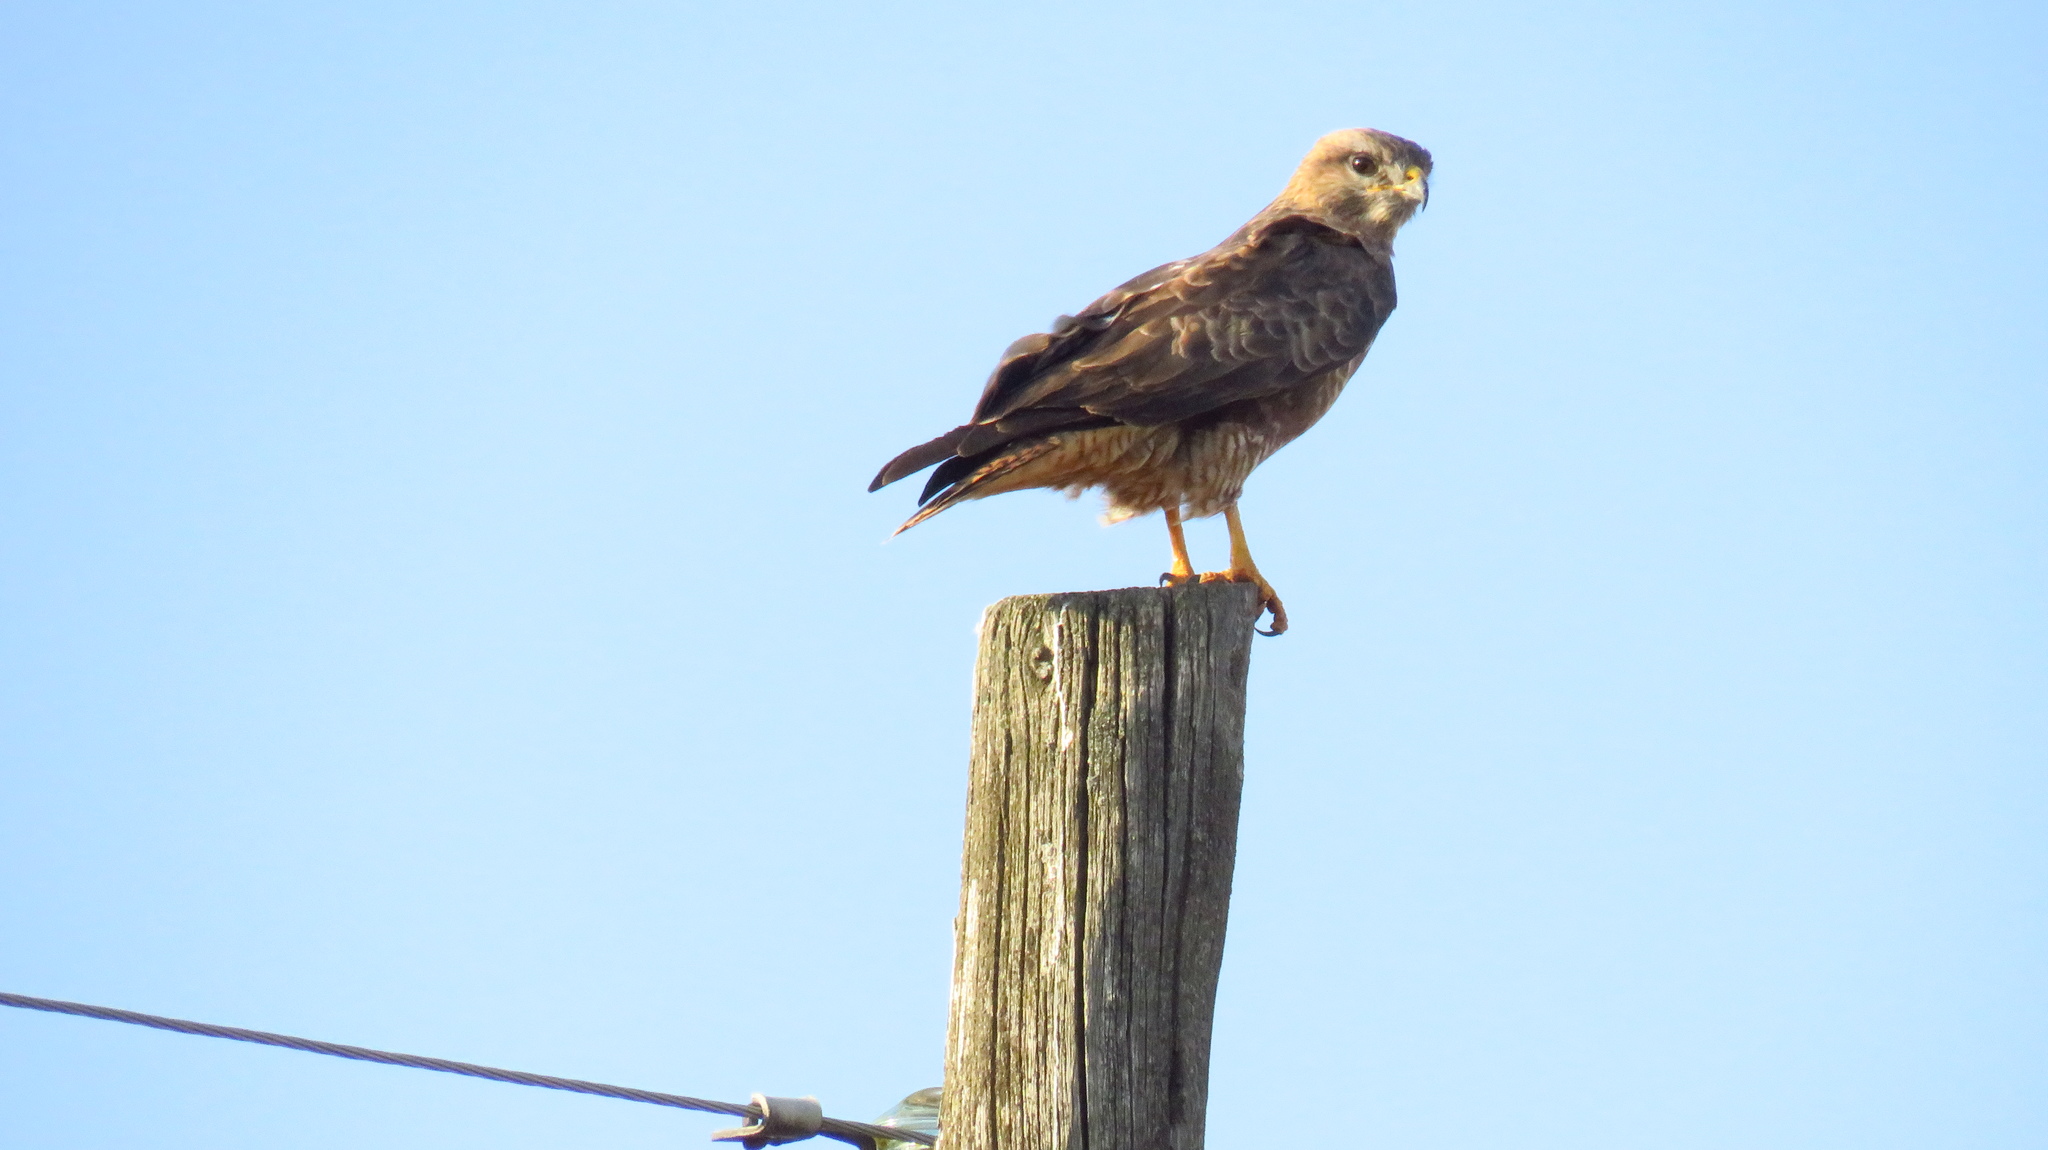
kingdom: Animalia
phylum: Chordata
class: Aves
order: Accipitriformes
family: Accipitridae
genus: Buteo
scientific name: Buteo buteo
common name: Common buzzard
